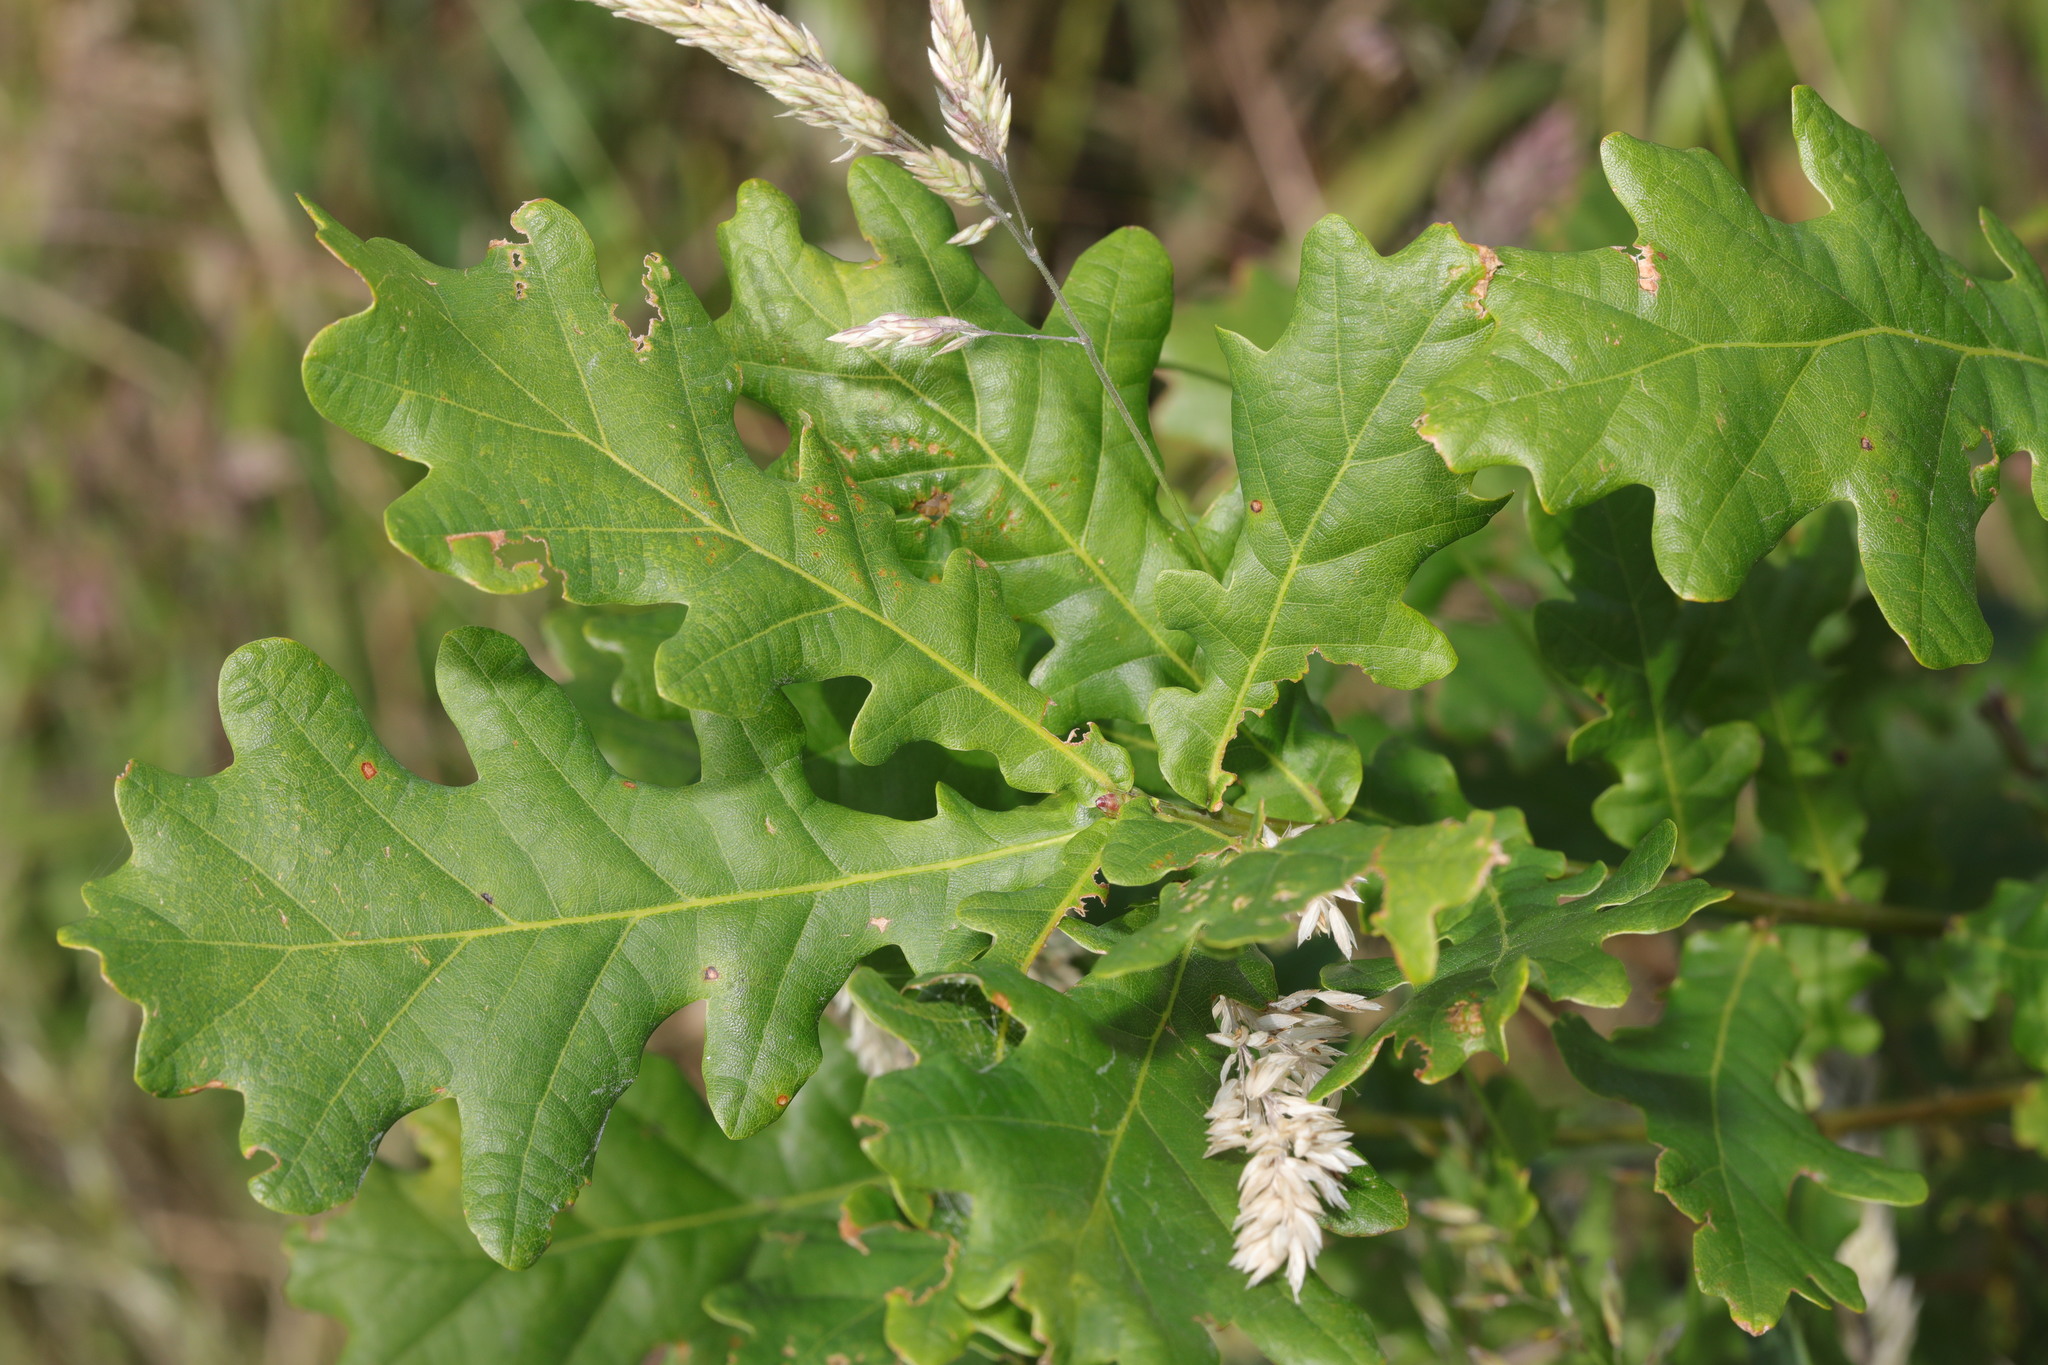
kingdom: Plantae
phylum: Tracheophyta
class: Magnoliopsida
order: Fagales
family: Fagaceae
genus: Quercus
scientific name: Quercus robur
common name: Pedunculate oak
